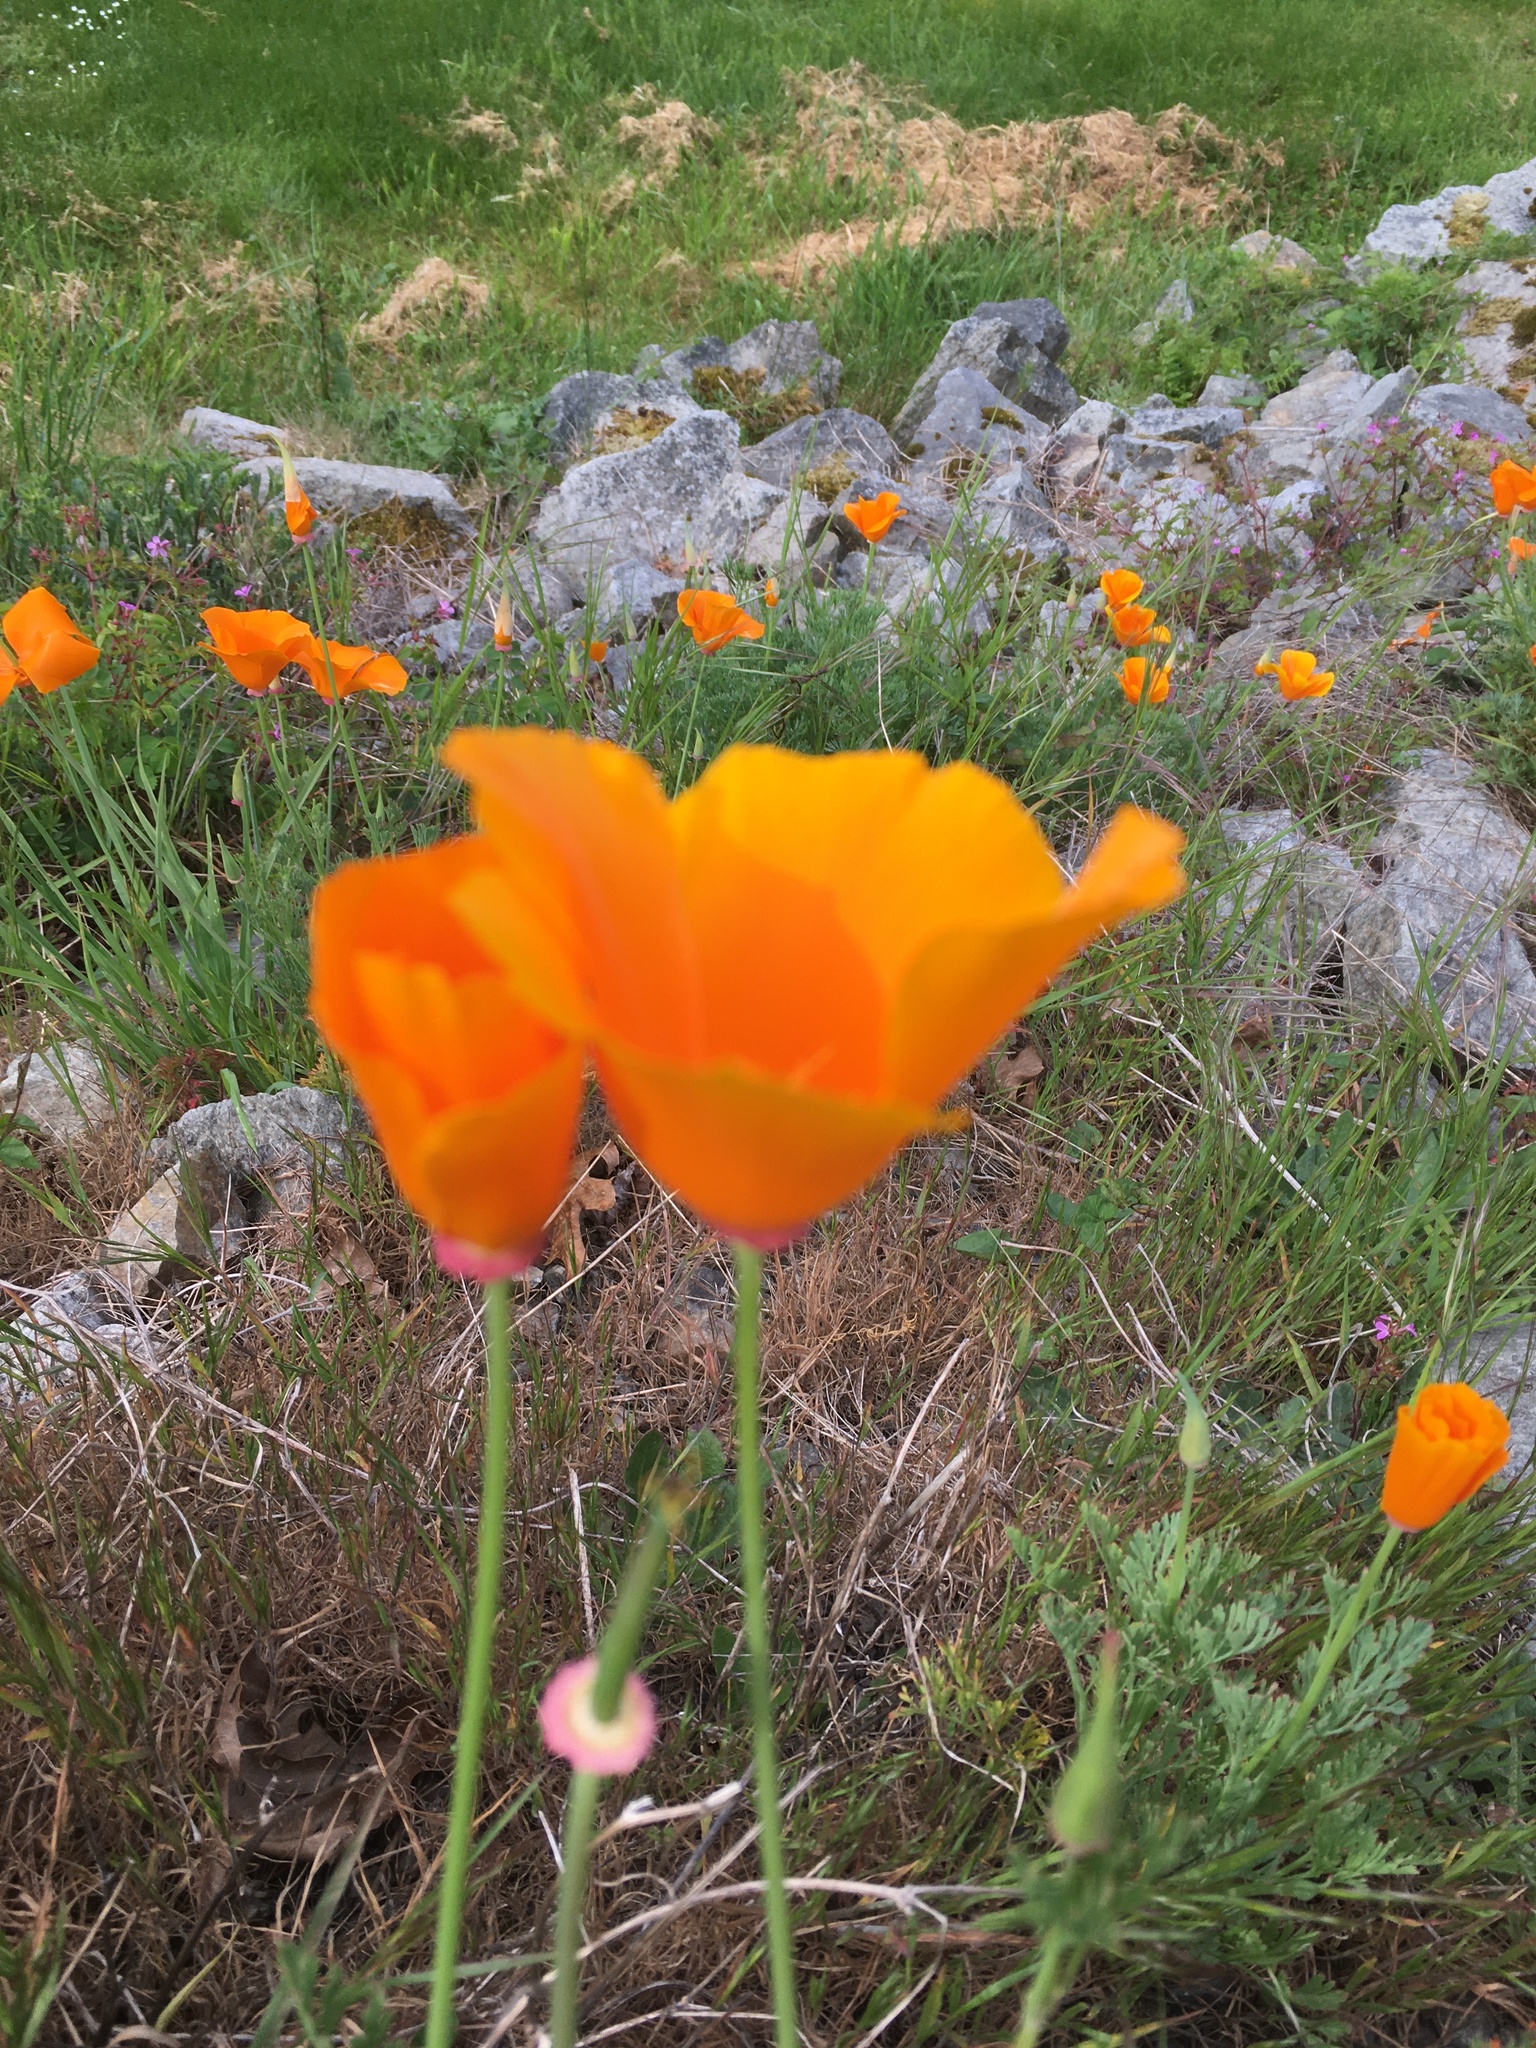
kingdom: Plantae
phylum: Tracheophyta
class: Magnoliopsida
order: Ranunculales
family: Papaveraceae
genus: Eschscholzia
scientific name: Eschscholzia californica
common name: California poppy
